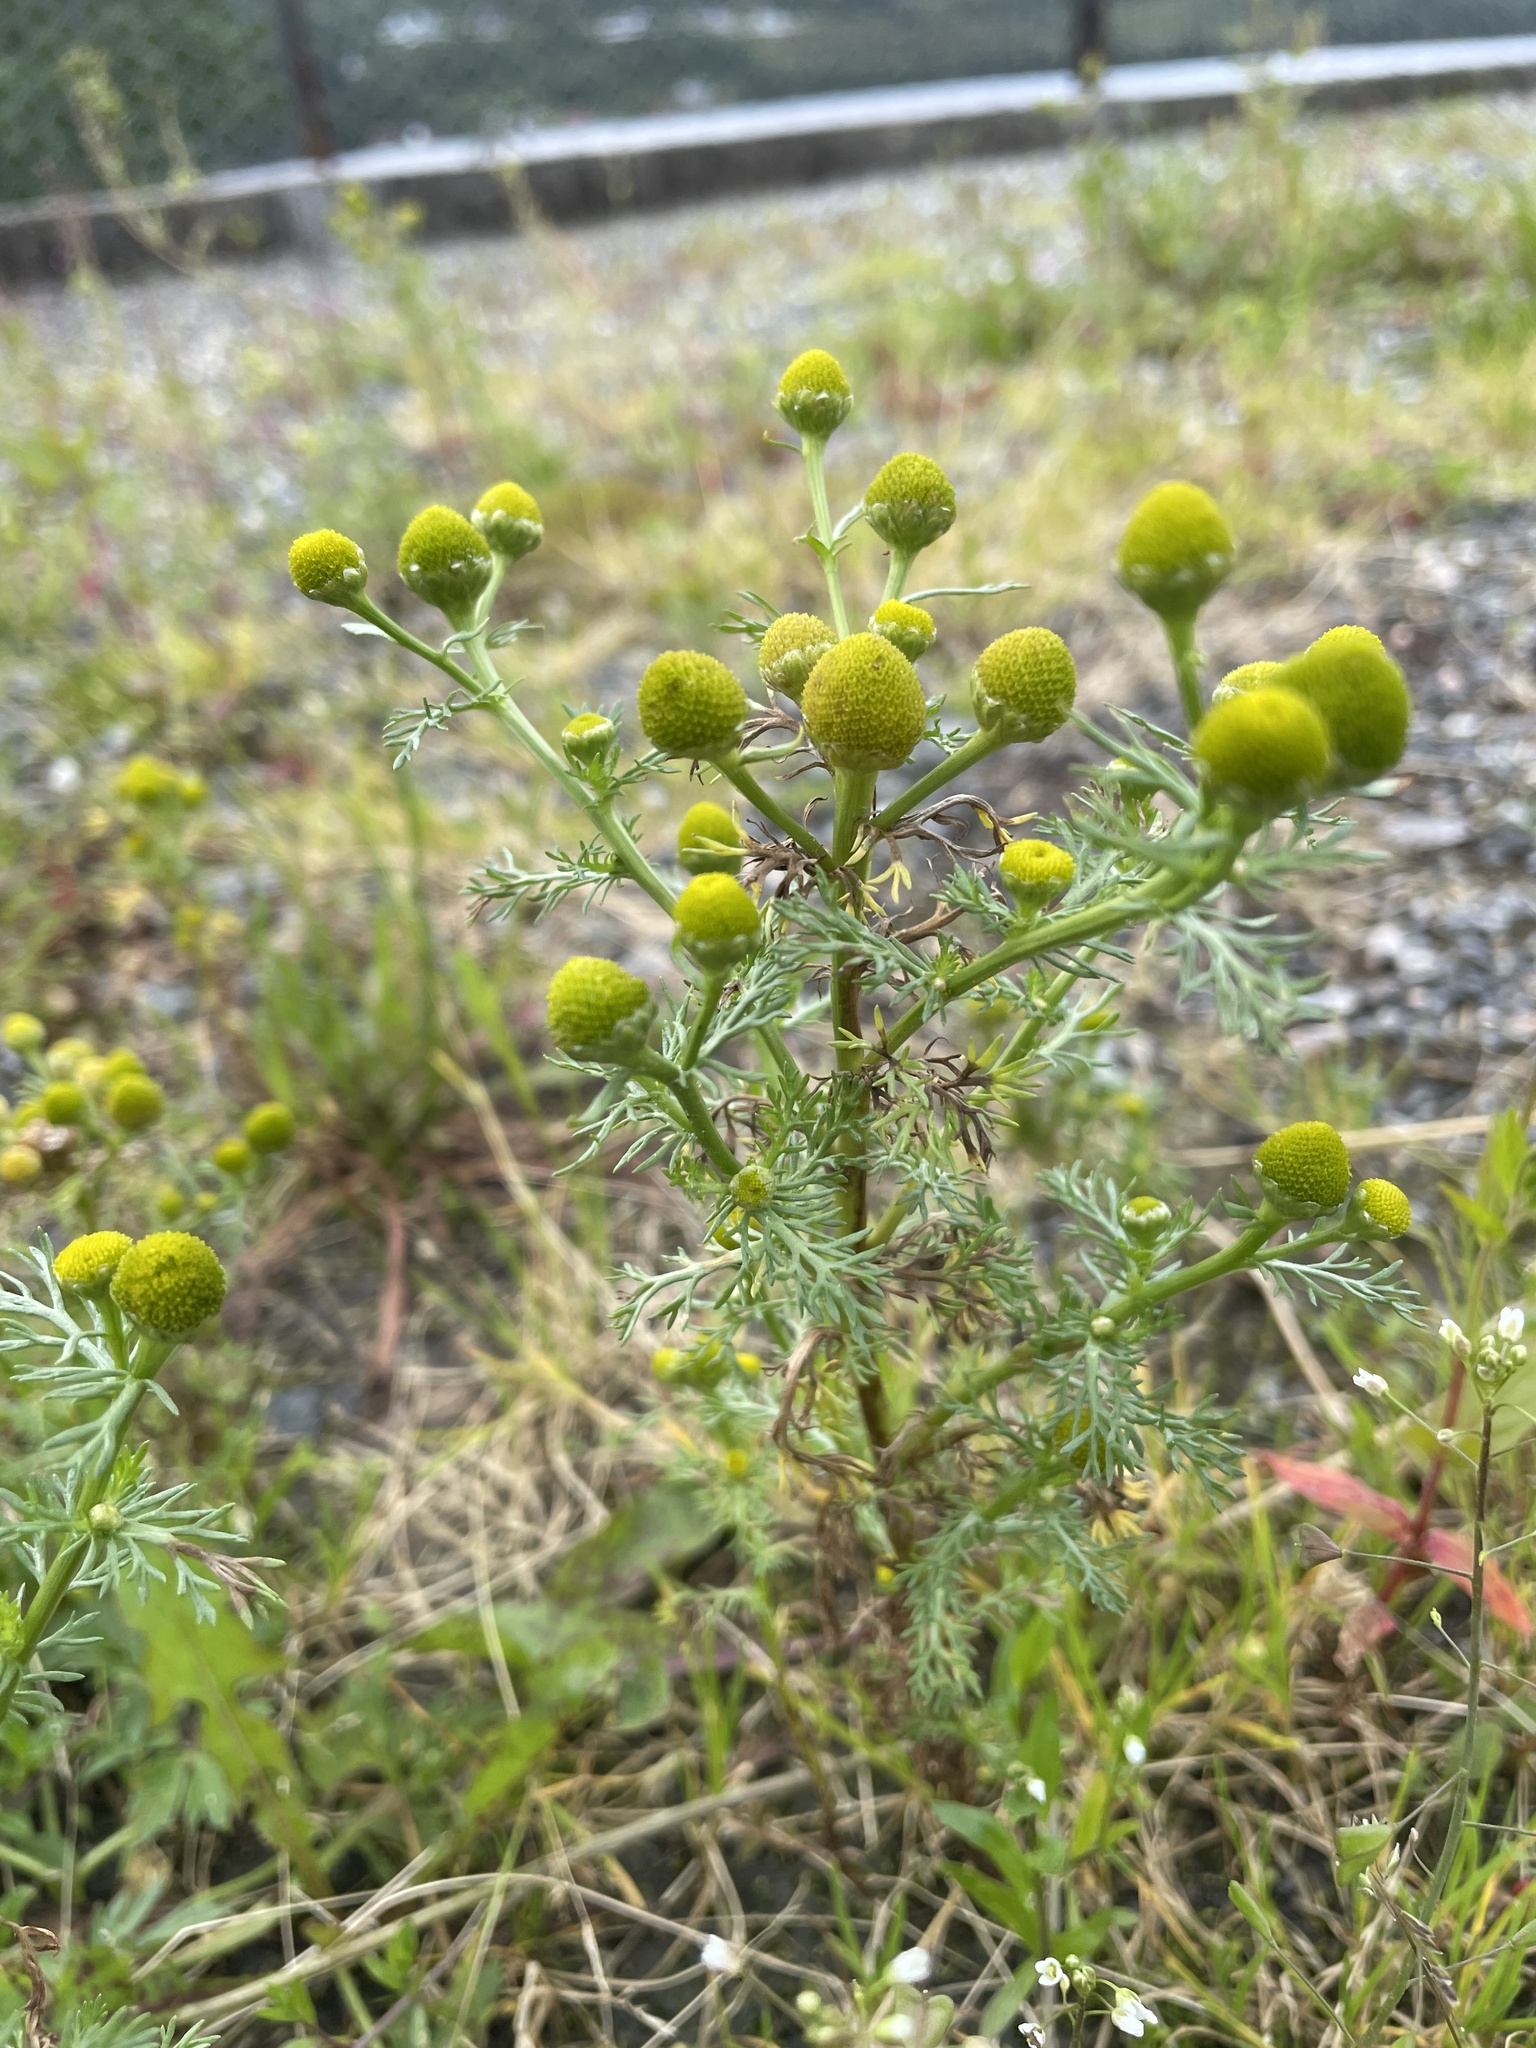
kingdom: Plantae
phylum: Tracheophyta
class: Magnoliopsida
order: Asterales
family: Asteraceae
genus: Matricaria
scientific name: Matricaria discoidea
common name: Disc mayweed
